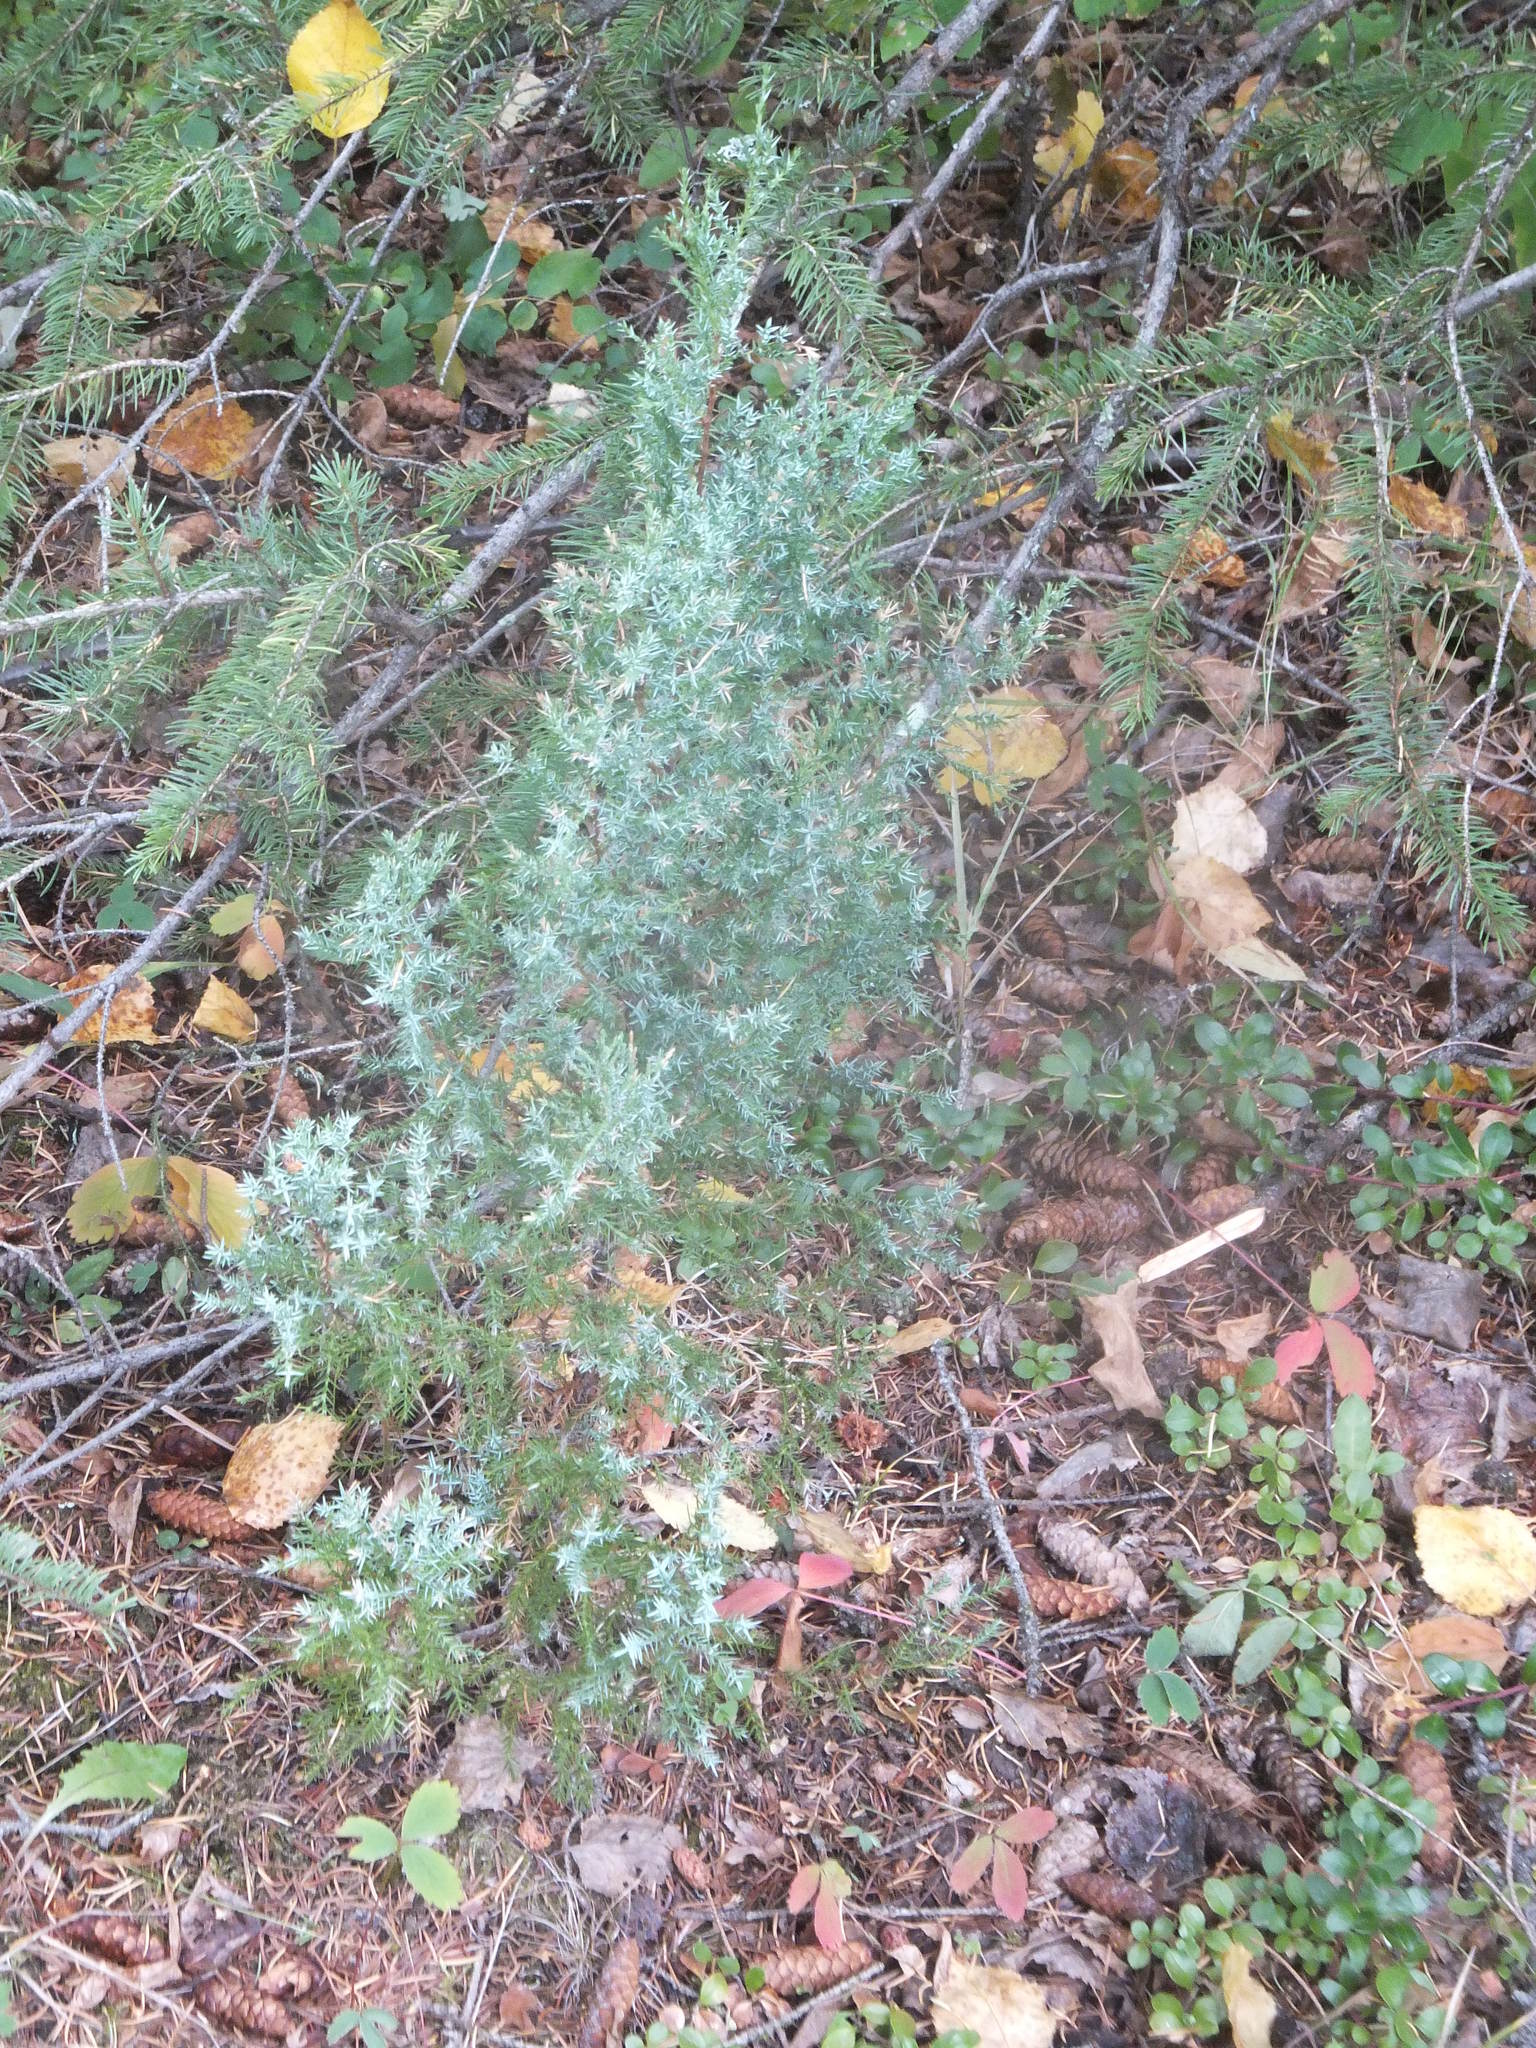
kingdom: Plantae
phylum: Tracheophyta
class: Pinopsida
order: Pinales
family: Cupressaceae
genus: Juniperus
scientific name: Juniperus scopulorum
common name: Rocky mountain juniper
